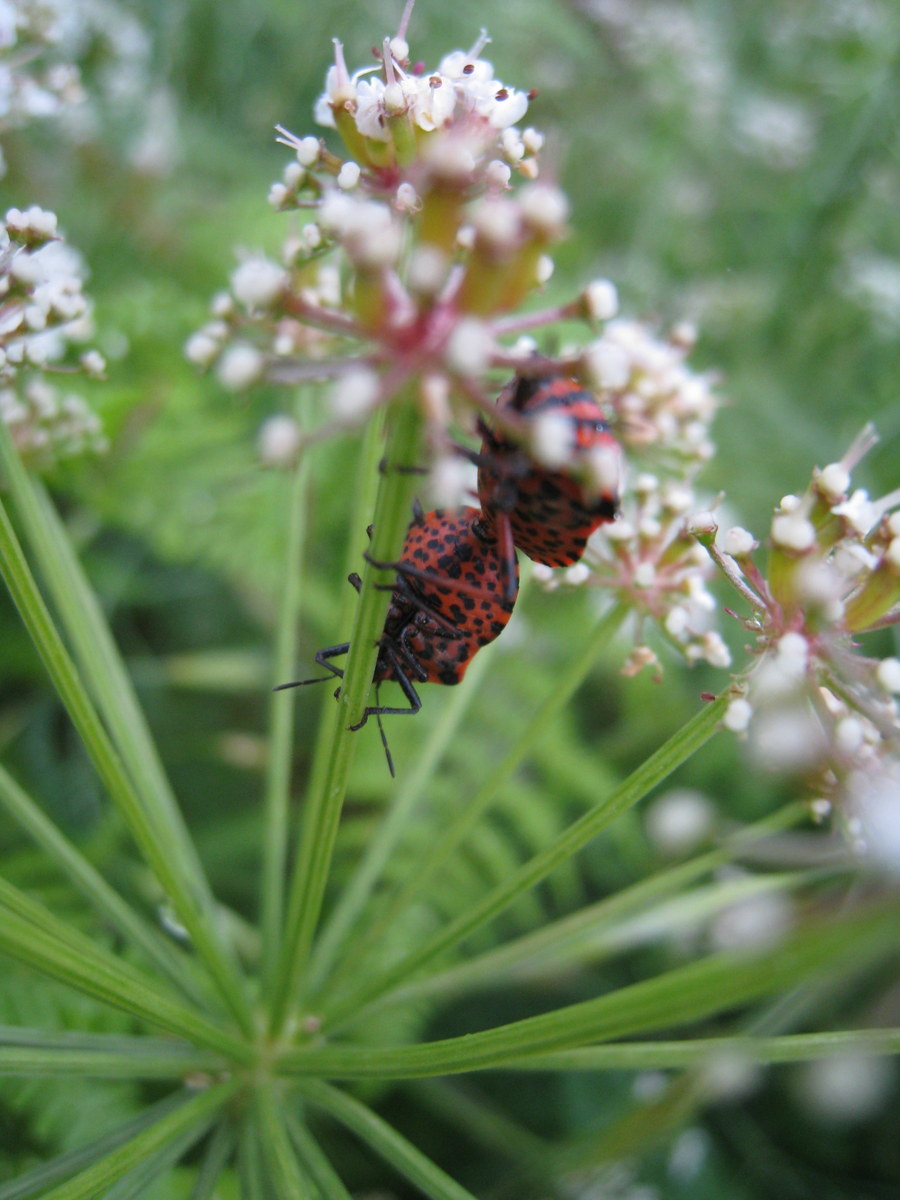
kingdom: Animalia
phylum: Arthropoda
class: Insecta
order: Hemiptera
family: Pentatomidae
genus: Graphosoma
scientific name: Graphosoma italicum
